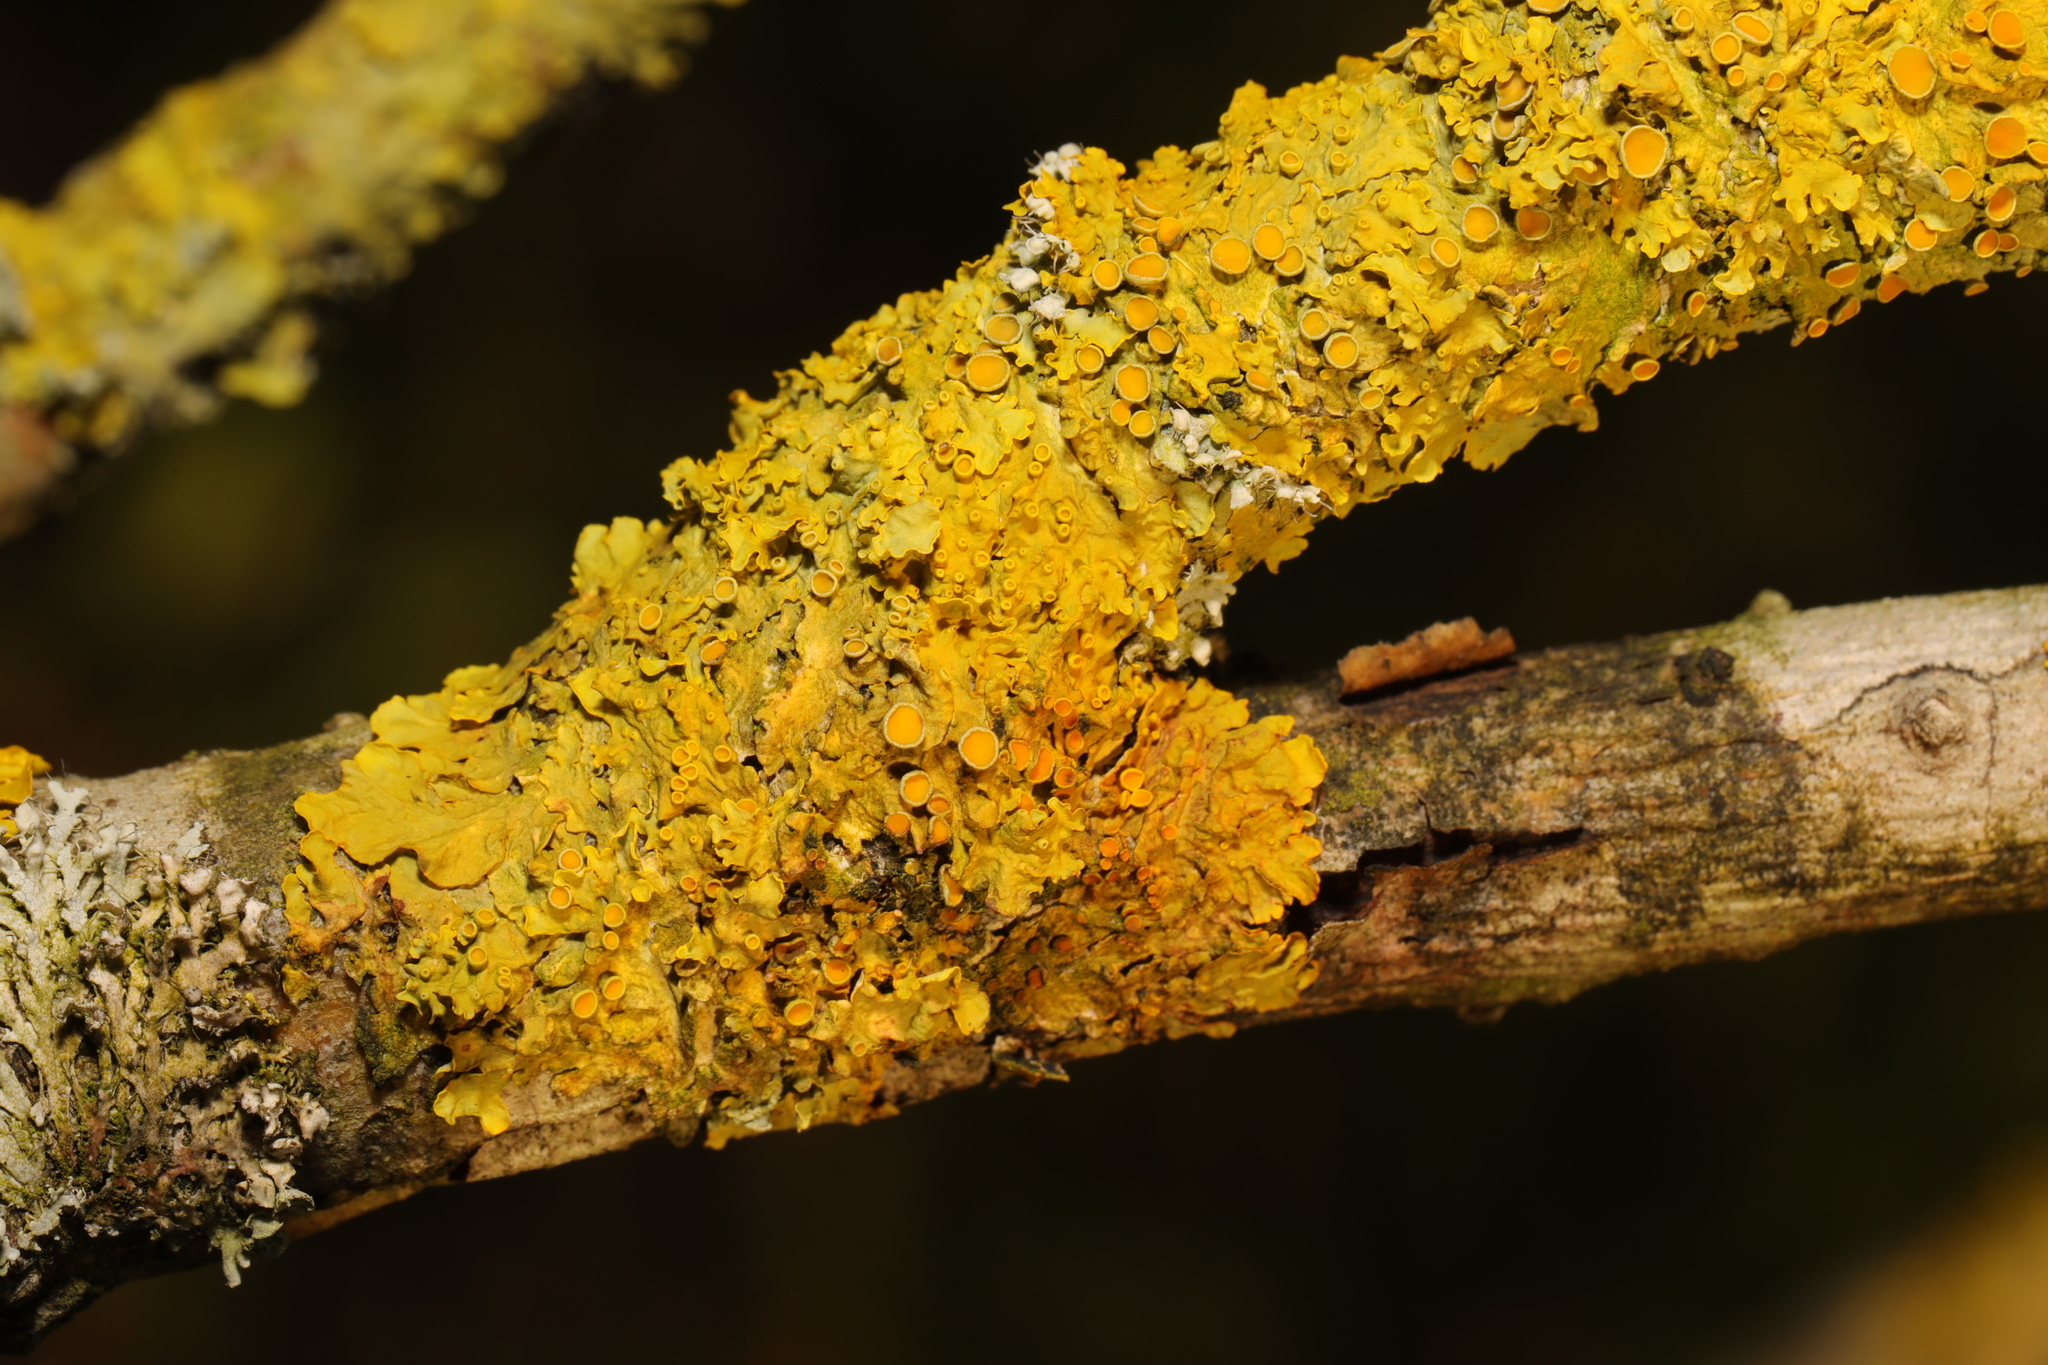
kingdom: Fungi
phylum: Ascomycota
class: Lecanoromycetes
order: Teloschistales
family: Teloschistaceae
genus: Xanthoria
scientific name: Xanthoria parietina
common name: Common orange lichen
